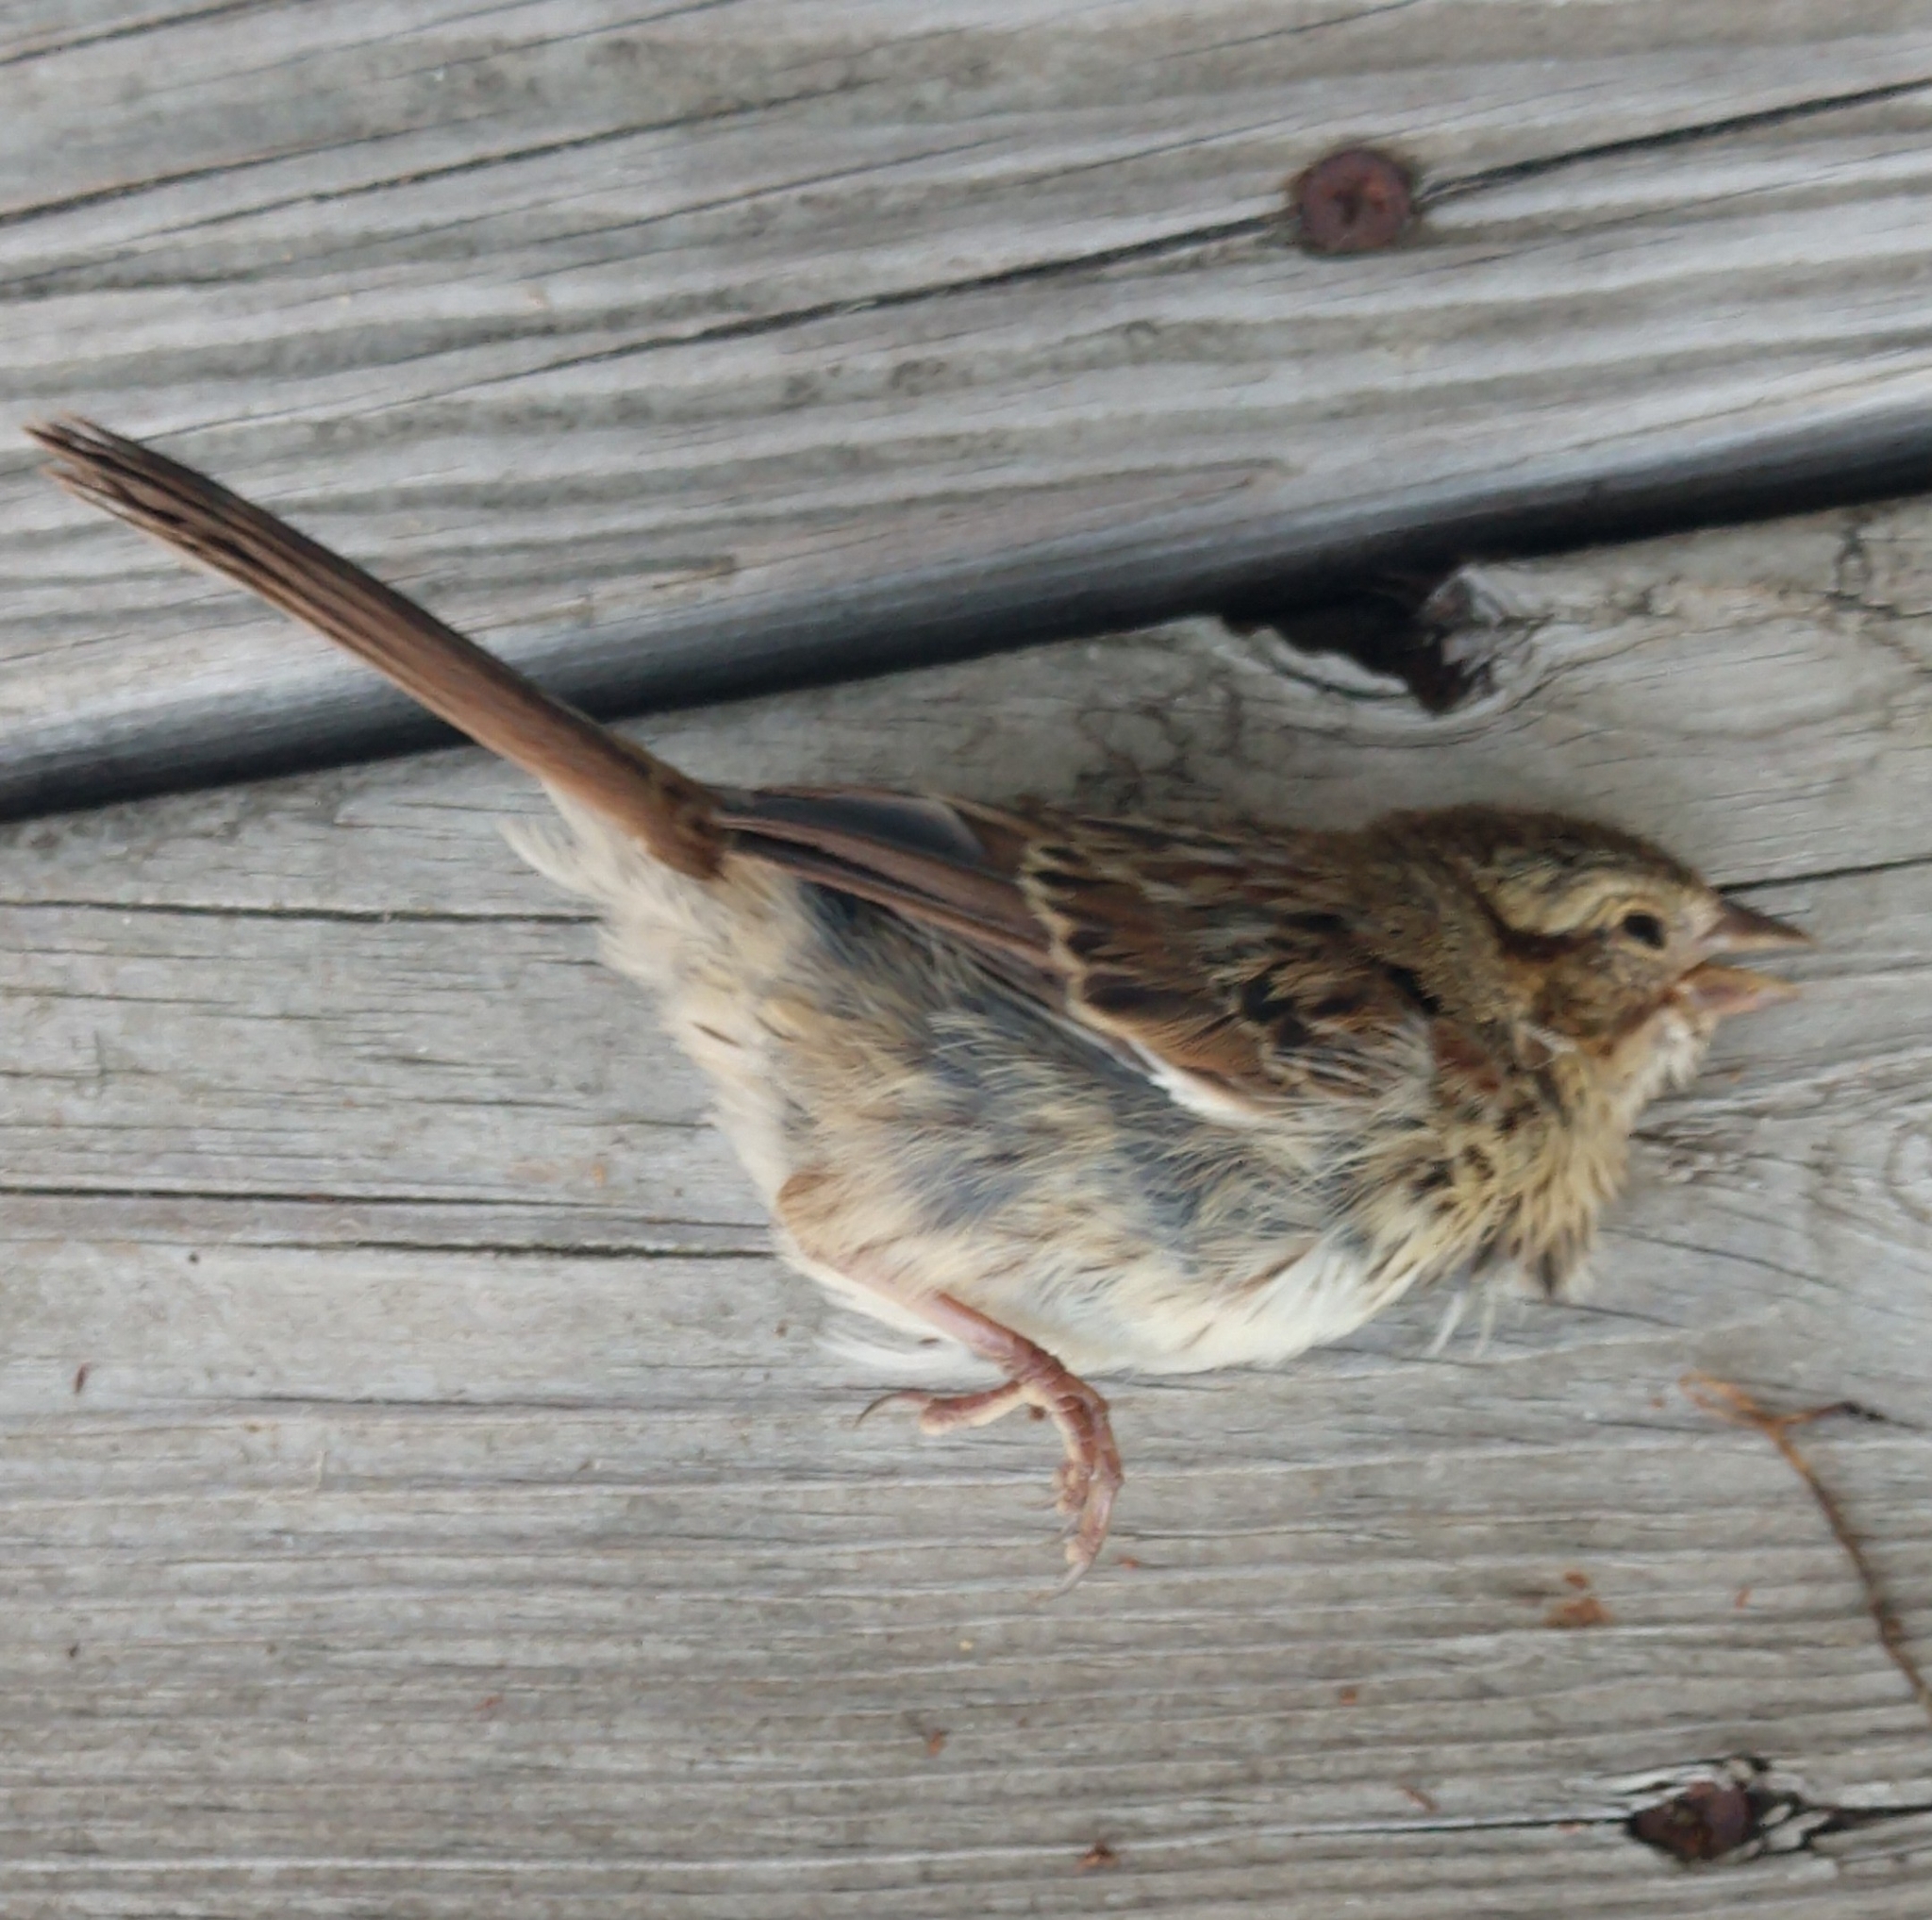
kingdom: Animalia
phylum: Chordata
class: Aves
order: Passeriformes
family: Passerellidae
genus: Melospiza
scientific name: Melospiza melodia
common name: Song sparrow
